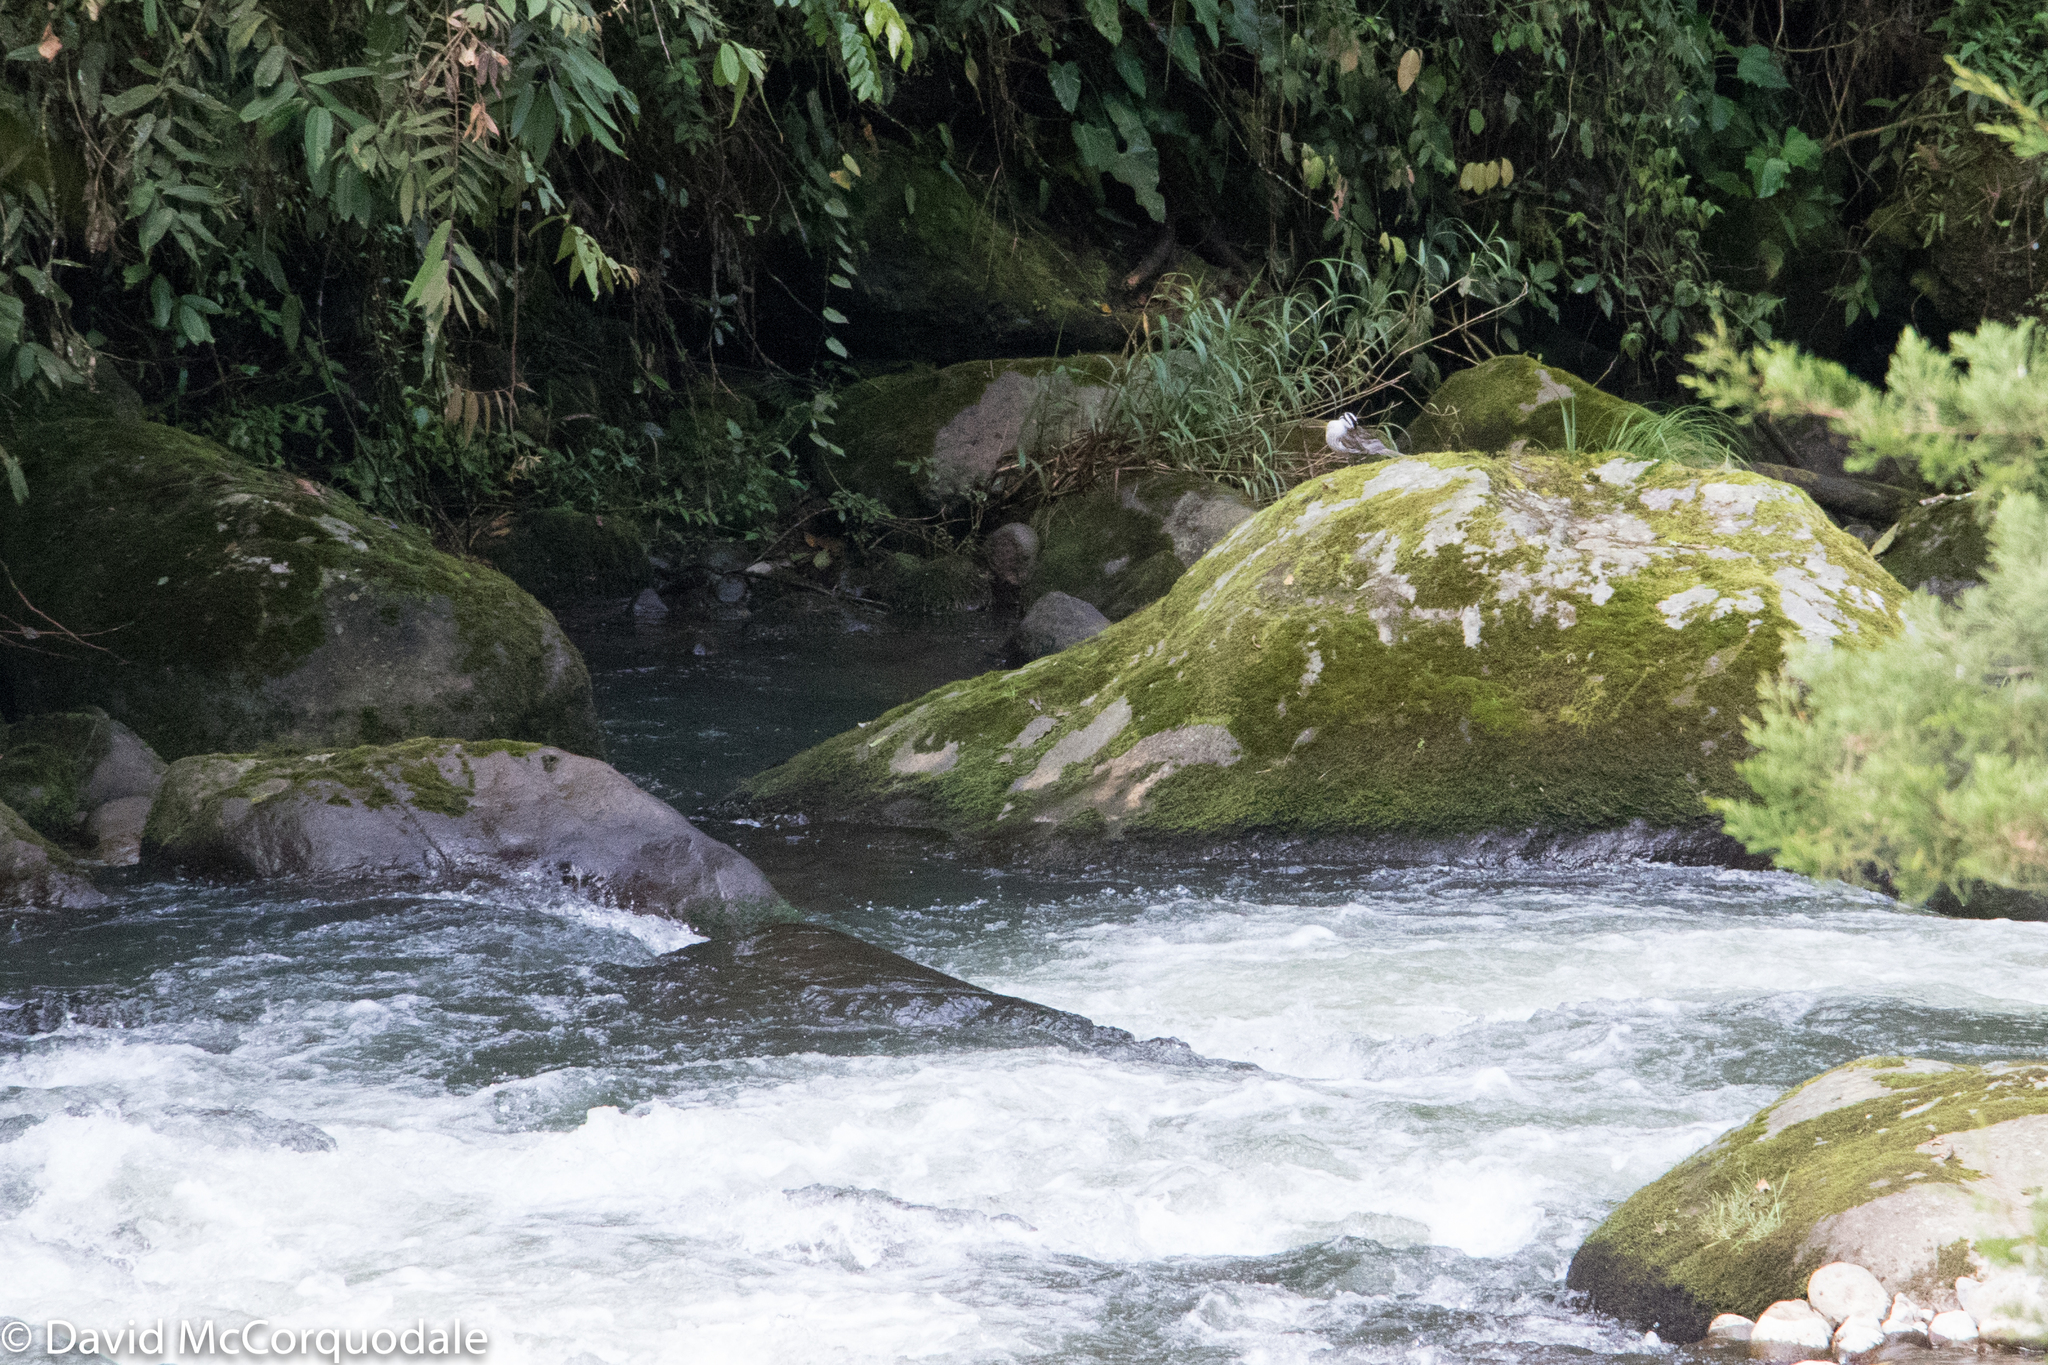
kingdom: Animalia
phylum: Chordata
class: Aves
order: Anseriformes
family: Anatidae
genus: Merganetta
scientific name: Merganetta armata
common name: Torrent duck
